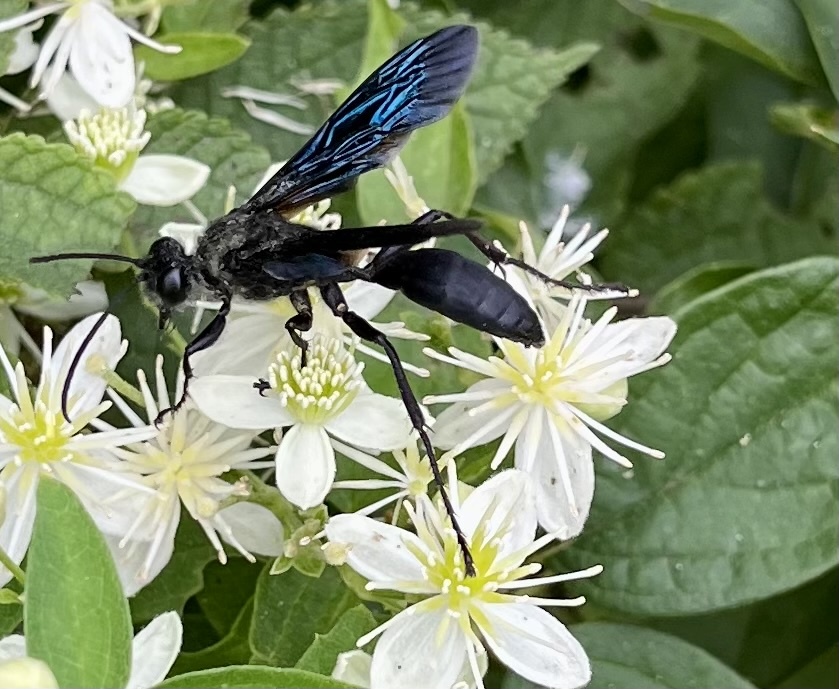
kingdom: Animalia
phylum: Arthropoda
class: Insecta
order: Hymenoptera
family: Sphecidae
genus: Sphex
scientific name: Sphex pensylvanicus
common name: Great black digger wasp
